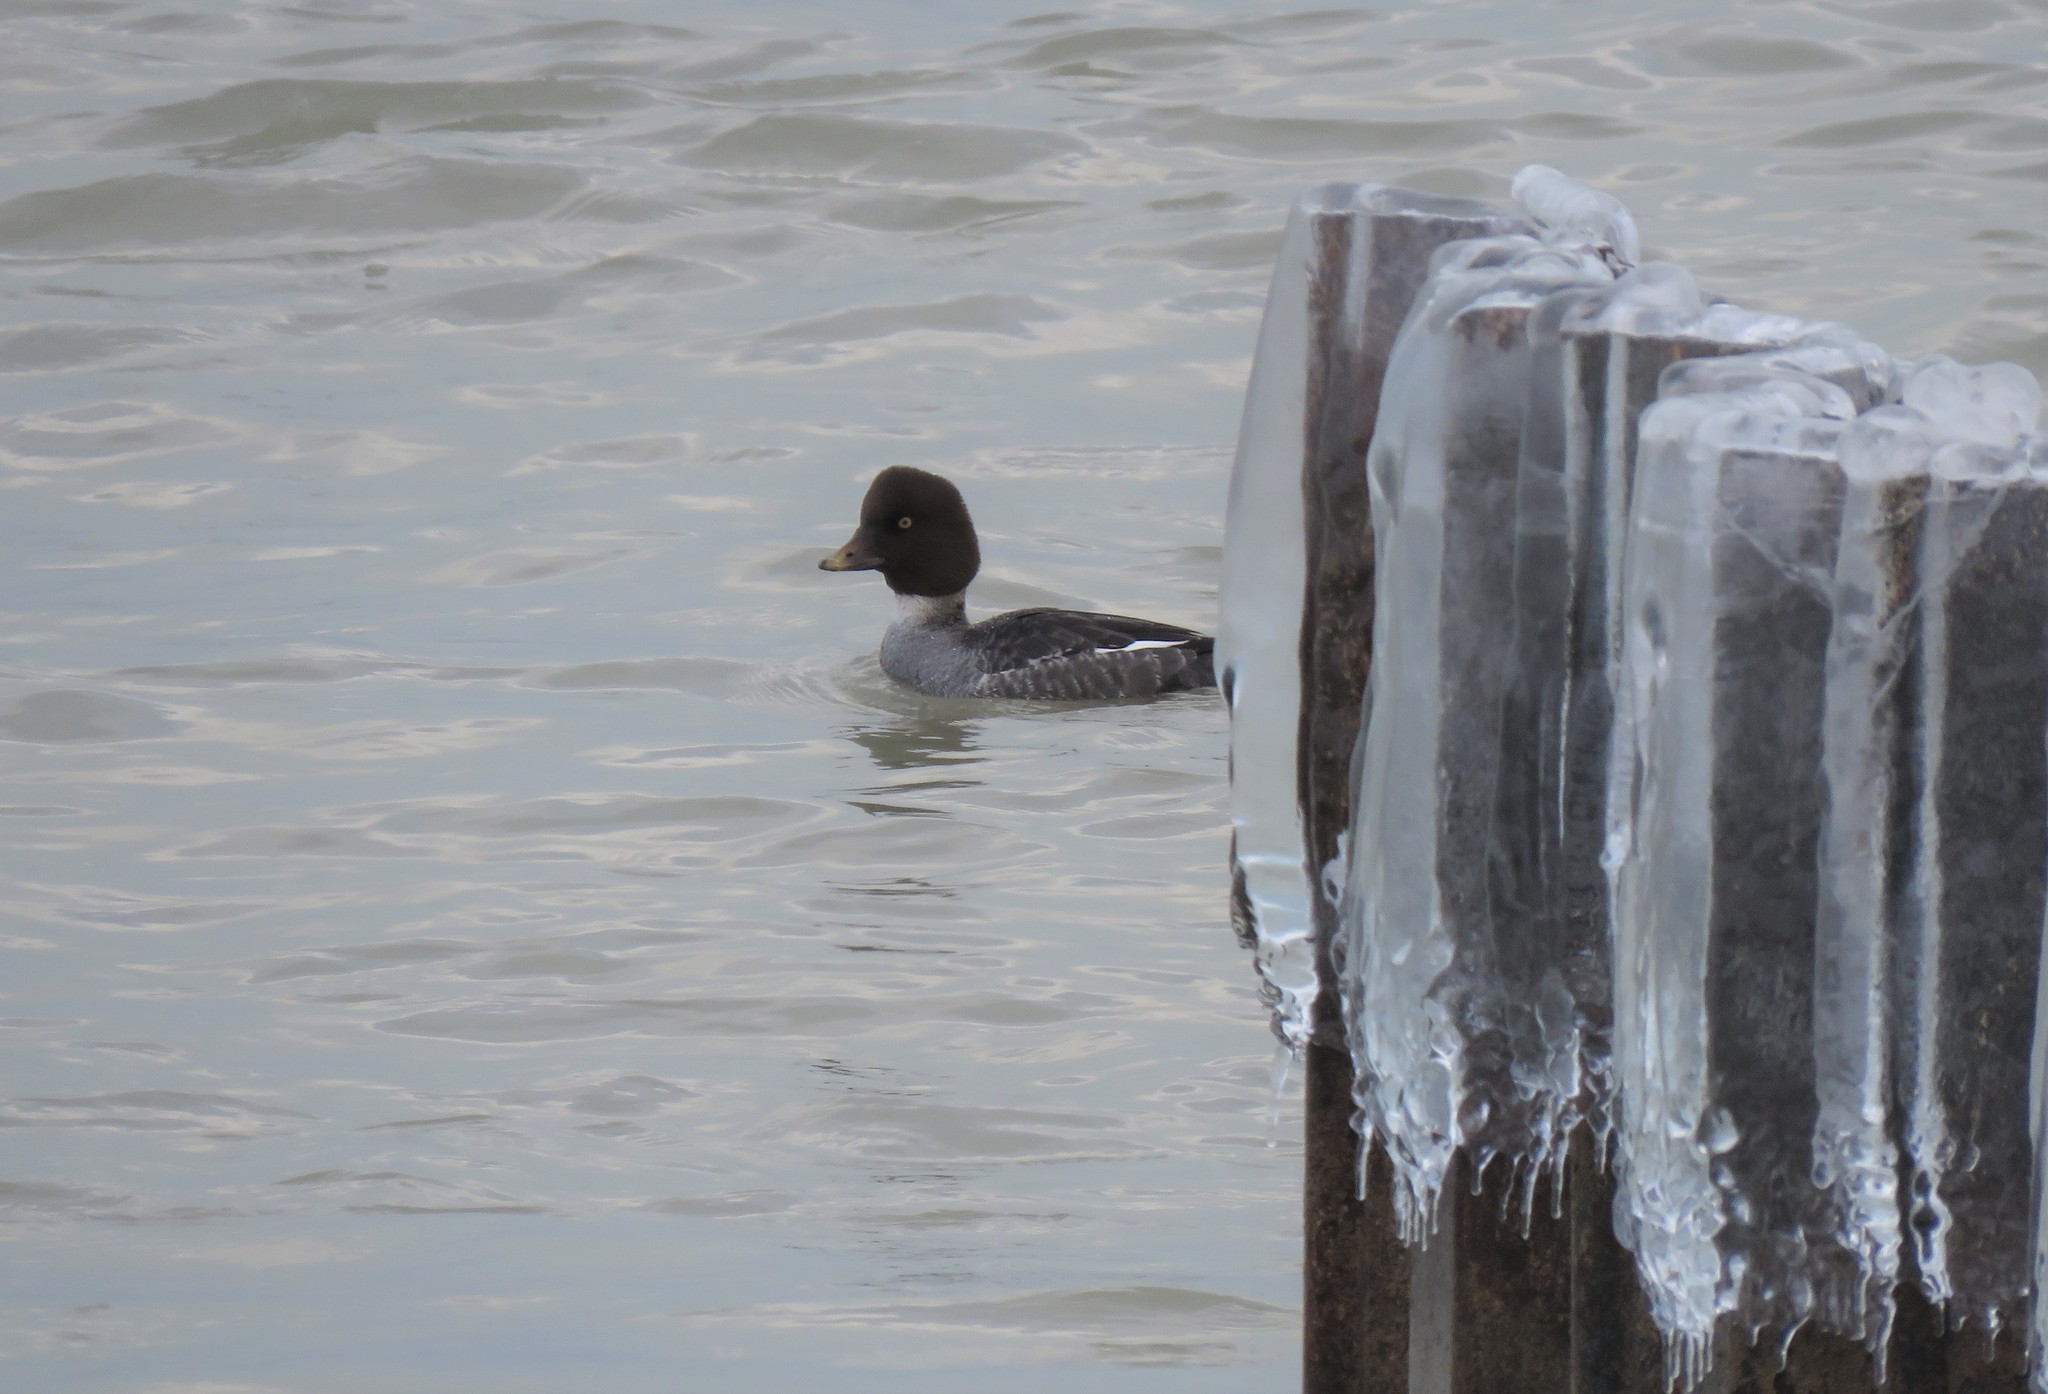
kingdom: Animalia
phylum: Chordata
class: Aves
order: Anseriformes
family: Anatidae
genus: Bucephala
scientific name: Bucephala clangula
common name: Common goldeneye
